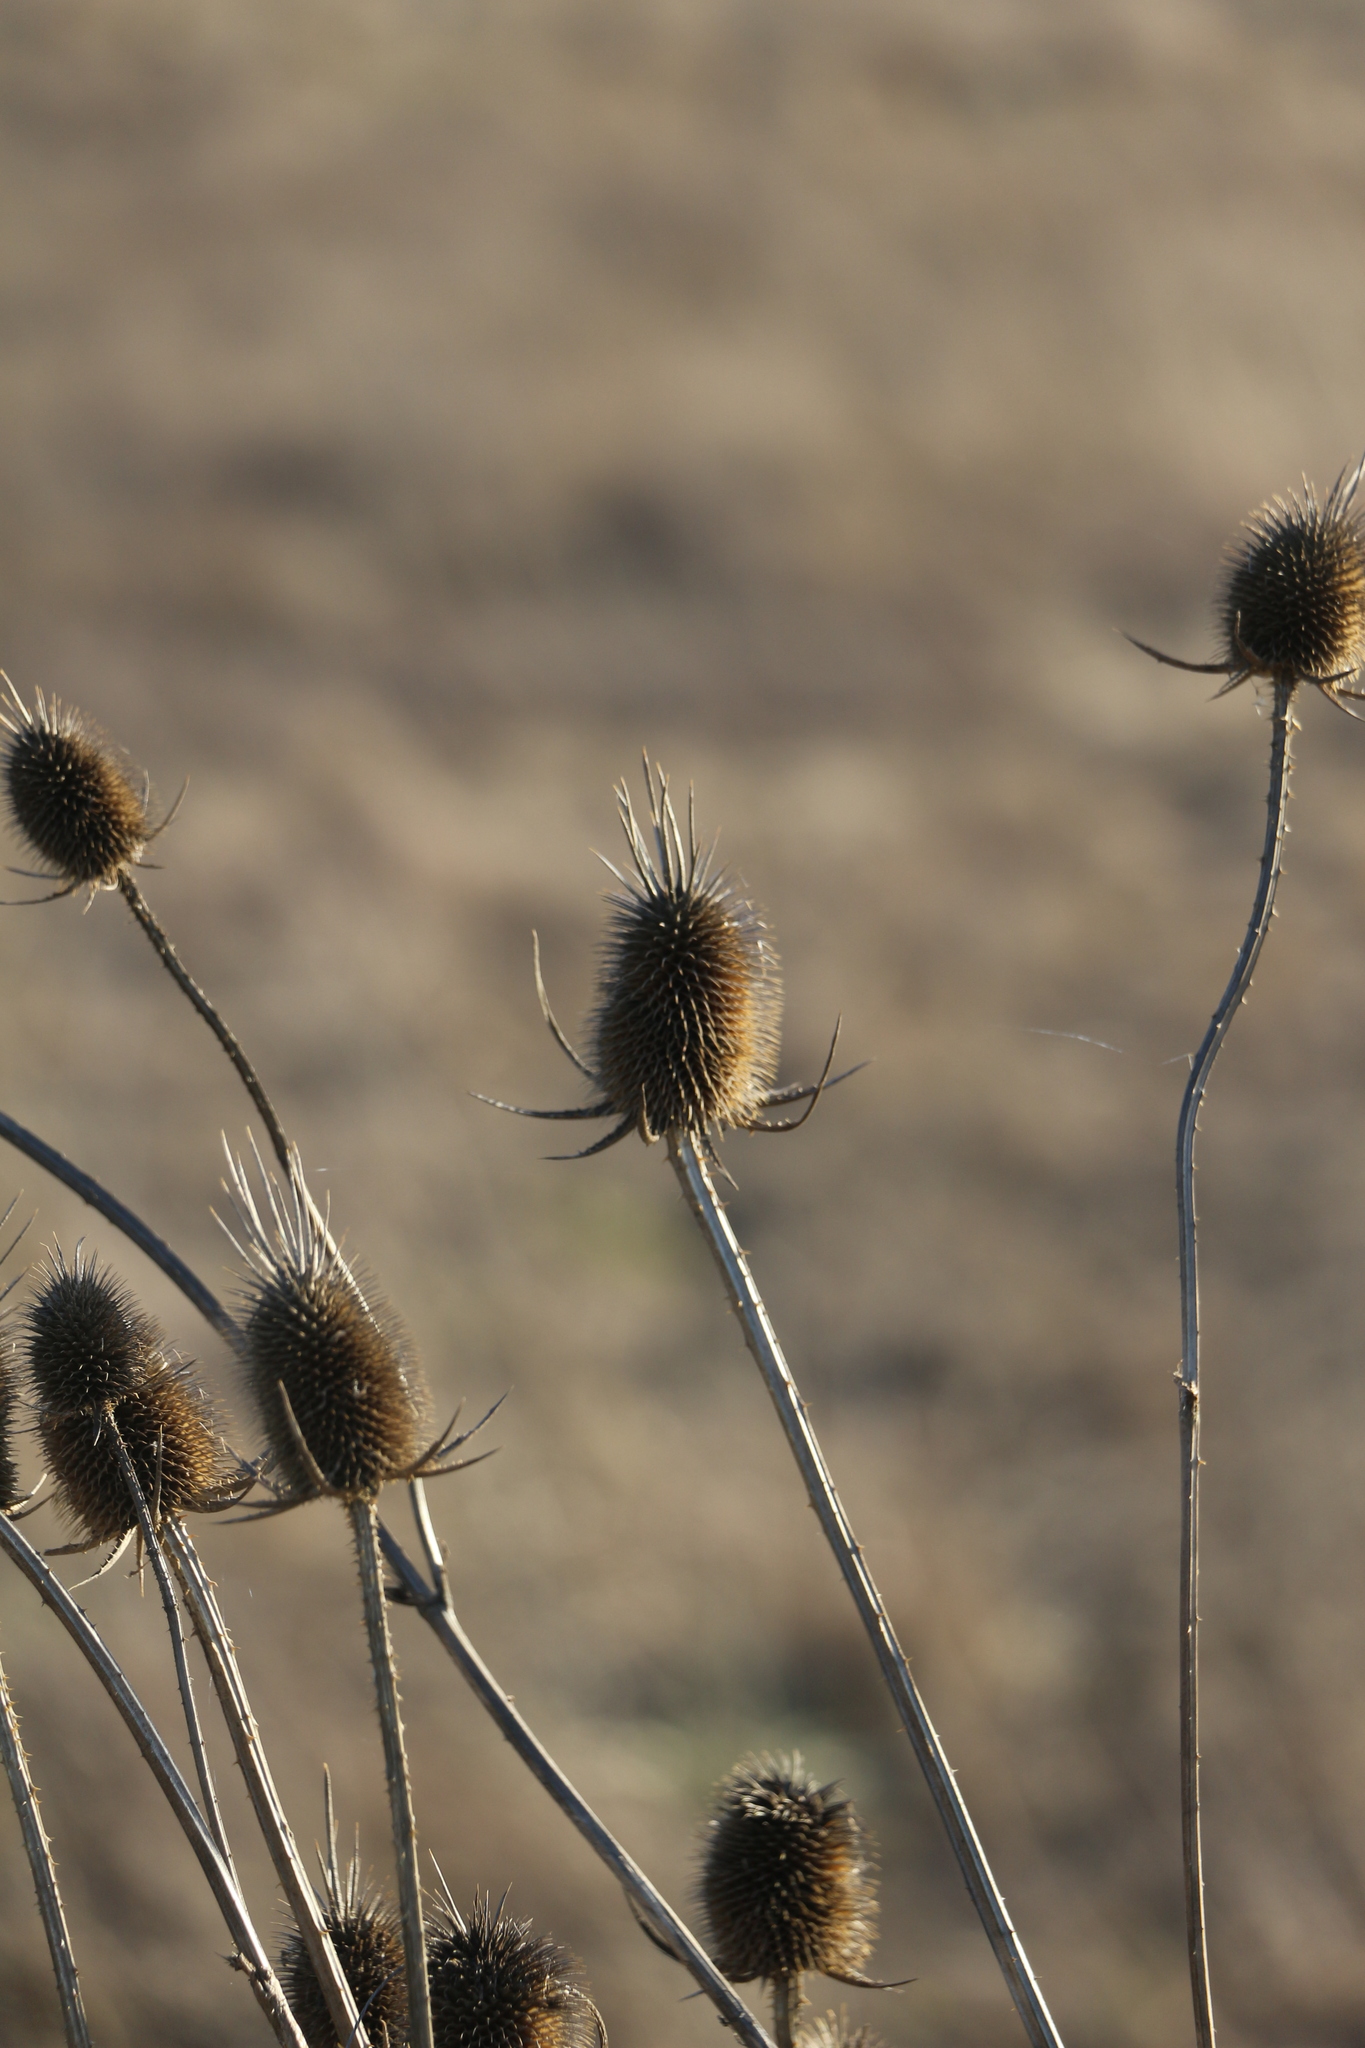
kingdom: Plantae
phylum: Tracheophyta
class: Magnoliopsida
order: Dipsacales
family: Caprifoliaceae
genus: Dipsacus
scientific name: Dipsacus laciniatus
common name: Cut-leaved teasel
